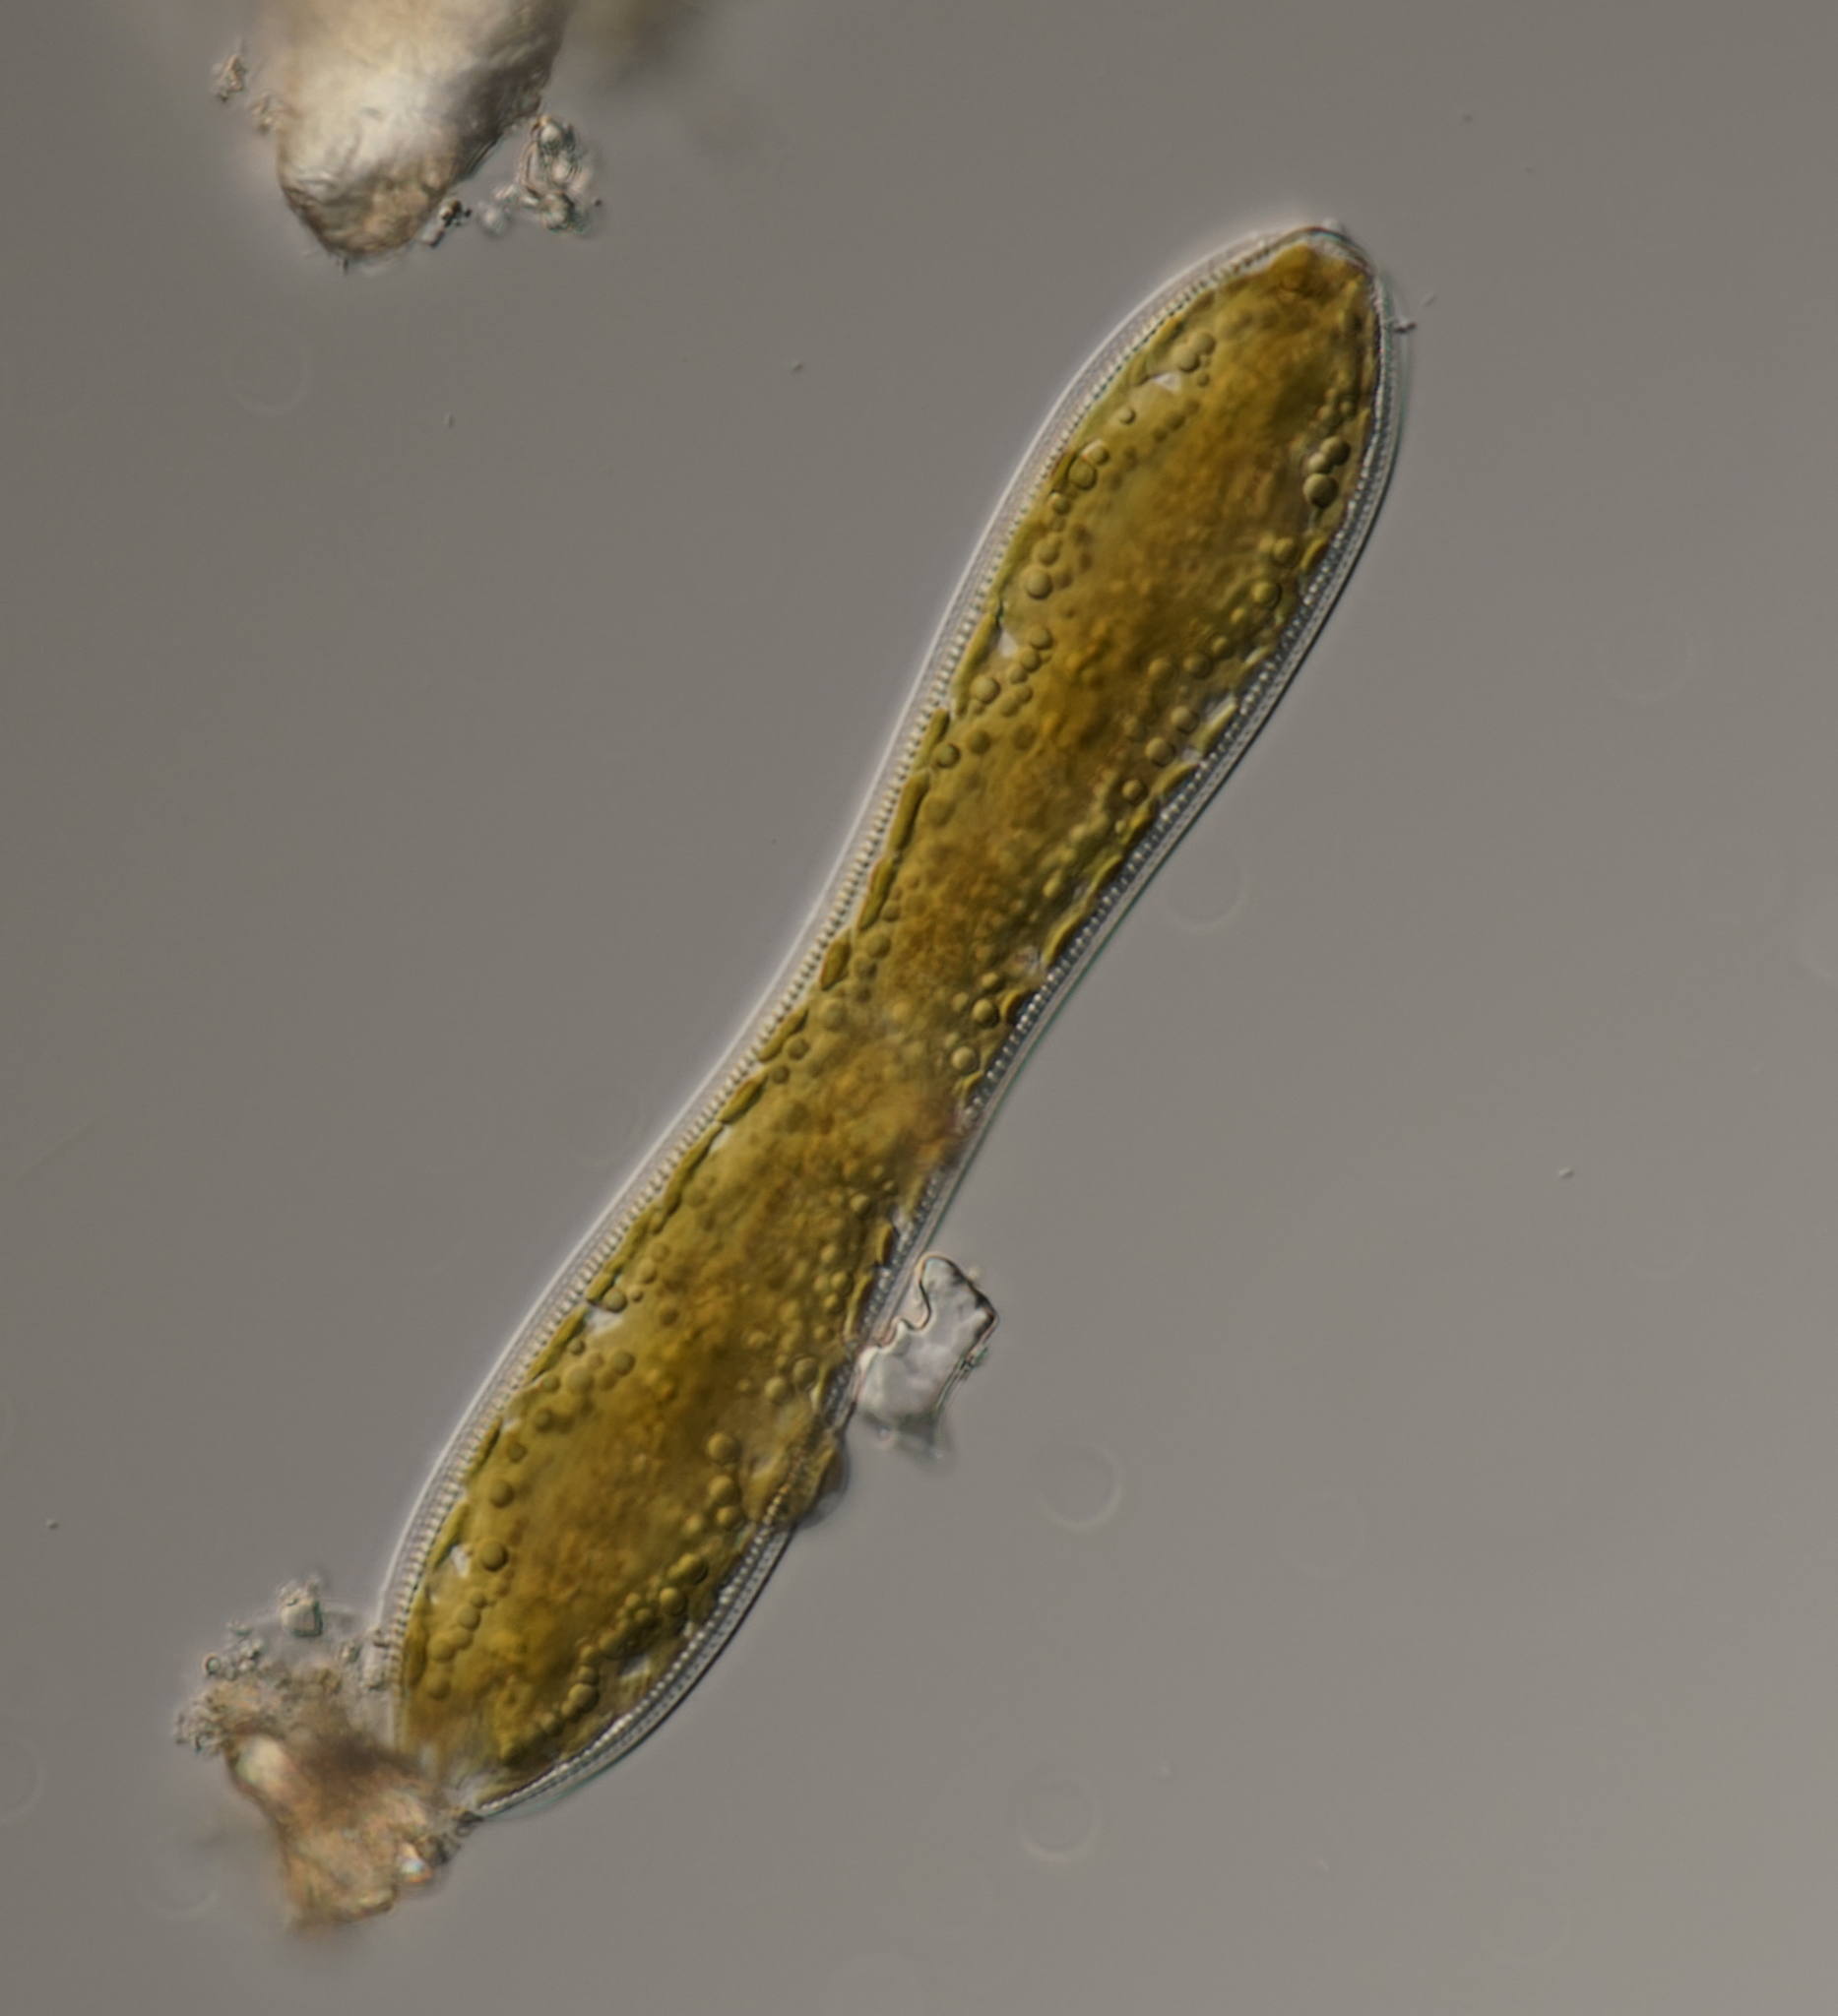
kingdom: Chromista
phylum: Ochrophyta
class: Bacillariophyceae
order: Surirellales
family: Surirellaceae
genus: Surirella
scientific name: Surirella librile
